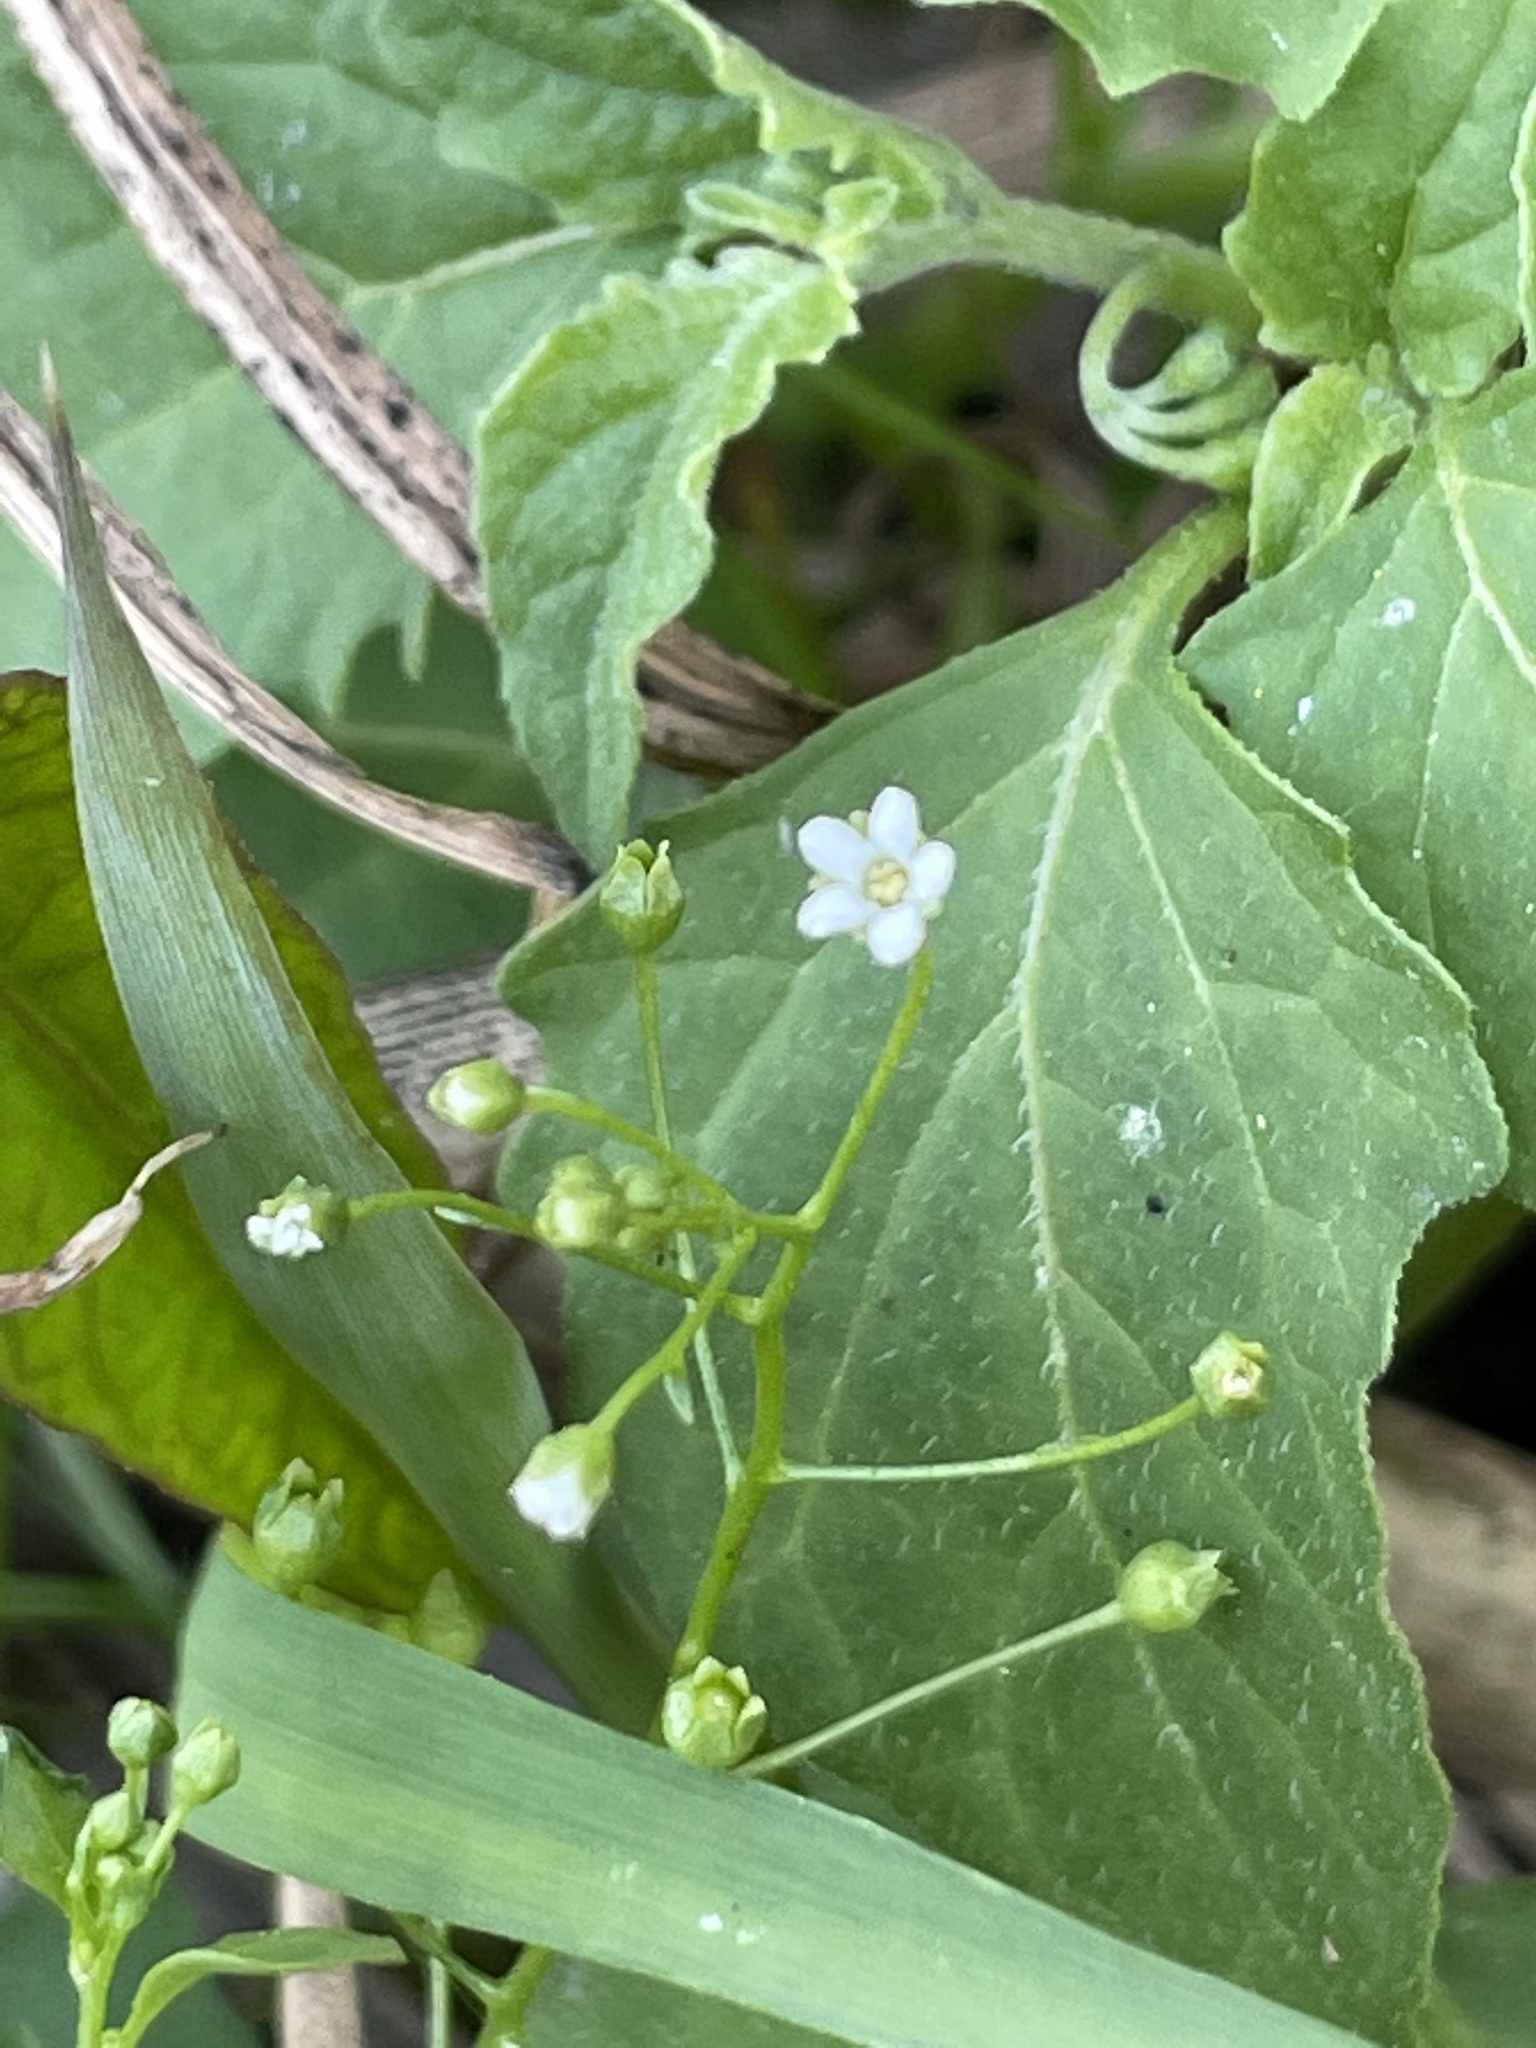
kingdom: Plantae
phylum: Tracheophyta
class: Magnoliopsida
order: Ericales
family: Primulaceae
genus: Samolus
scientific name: Samolus parviflorus
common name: False water pimpernel
